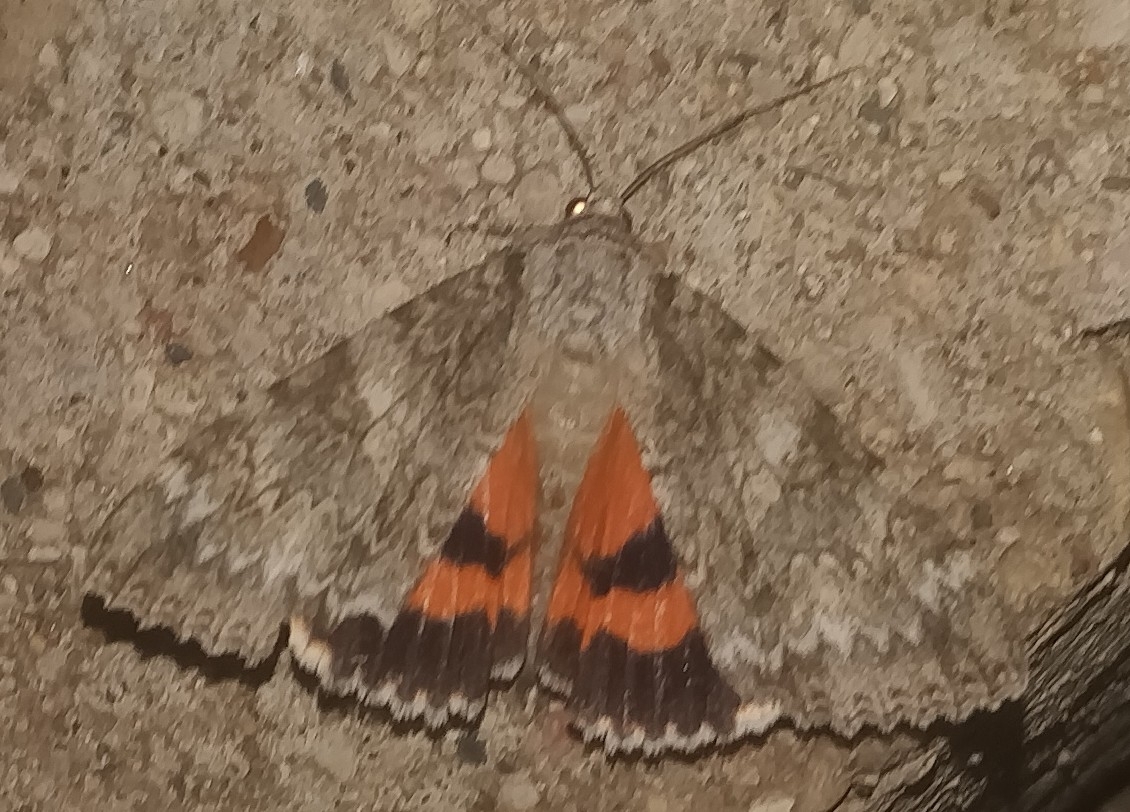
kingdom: Animalia
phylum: Arthropoda
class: Insecta
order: Lepidoptera
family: Erebidae
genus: Catocala
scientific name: Catocala meskei
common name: Meske's underwing moth
